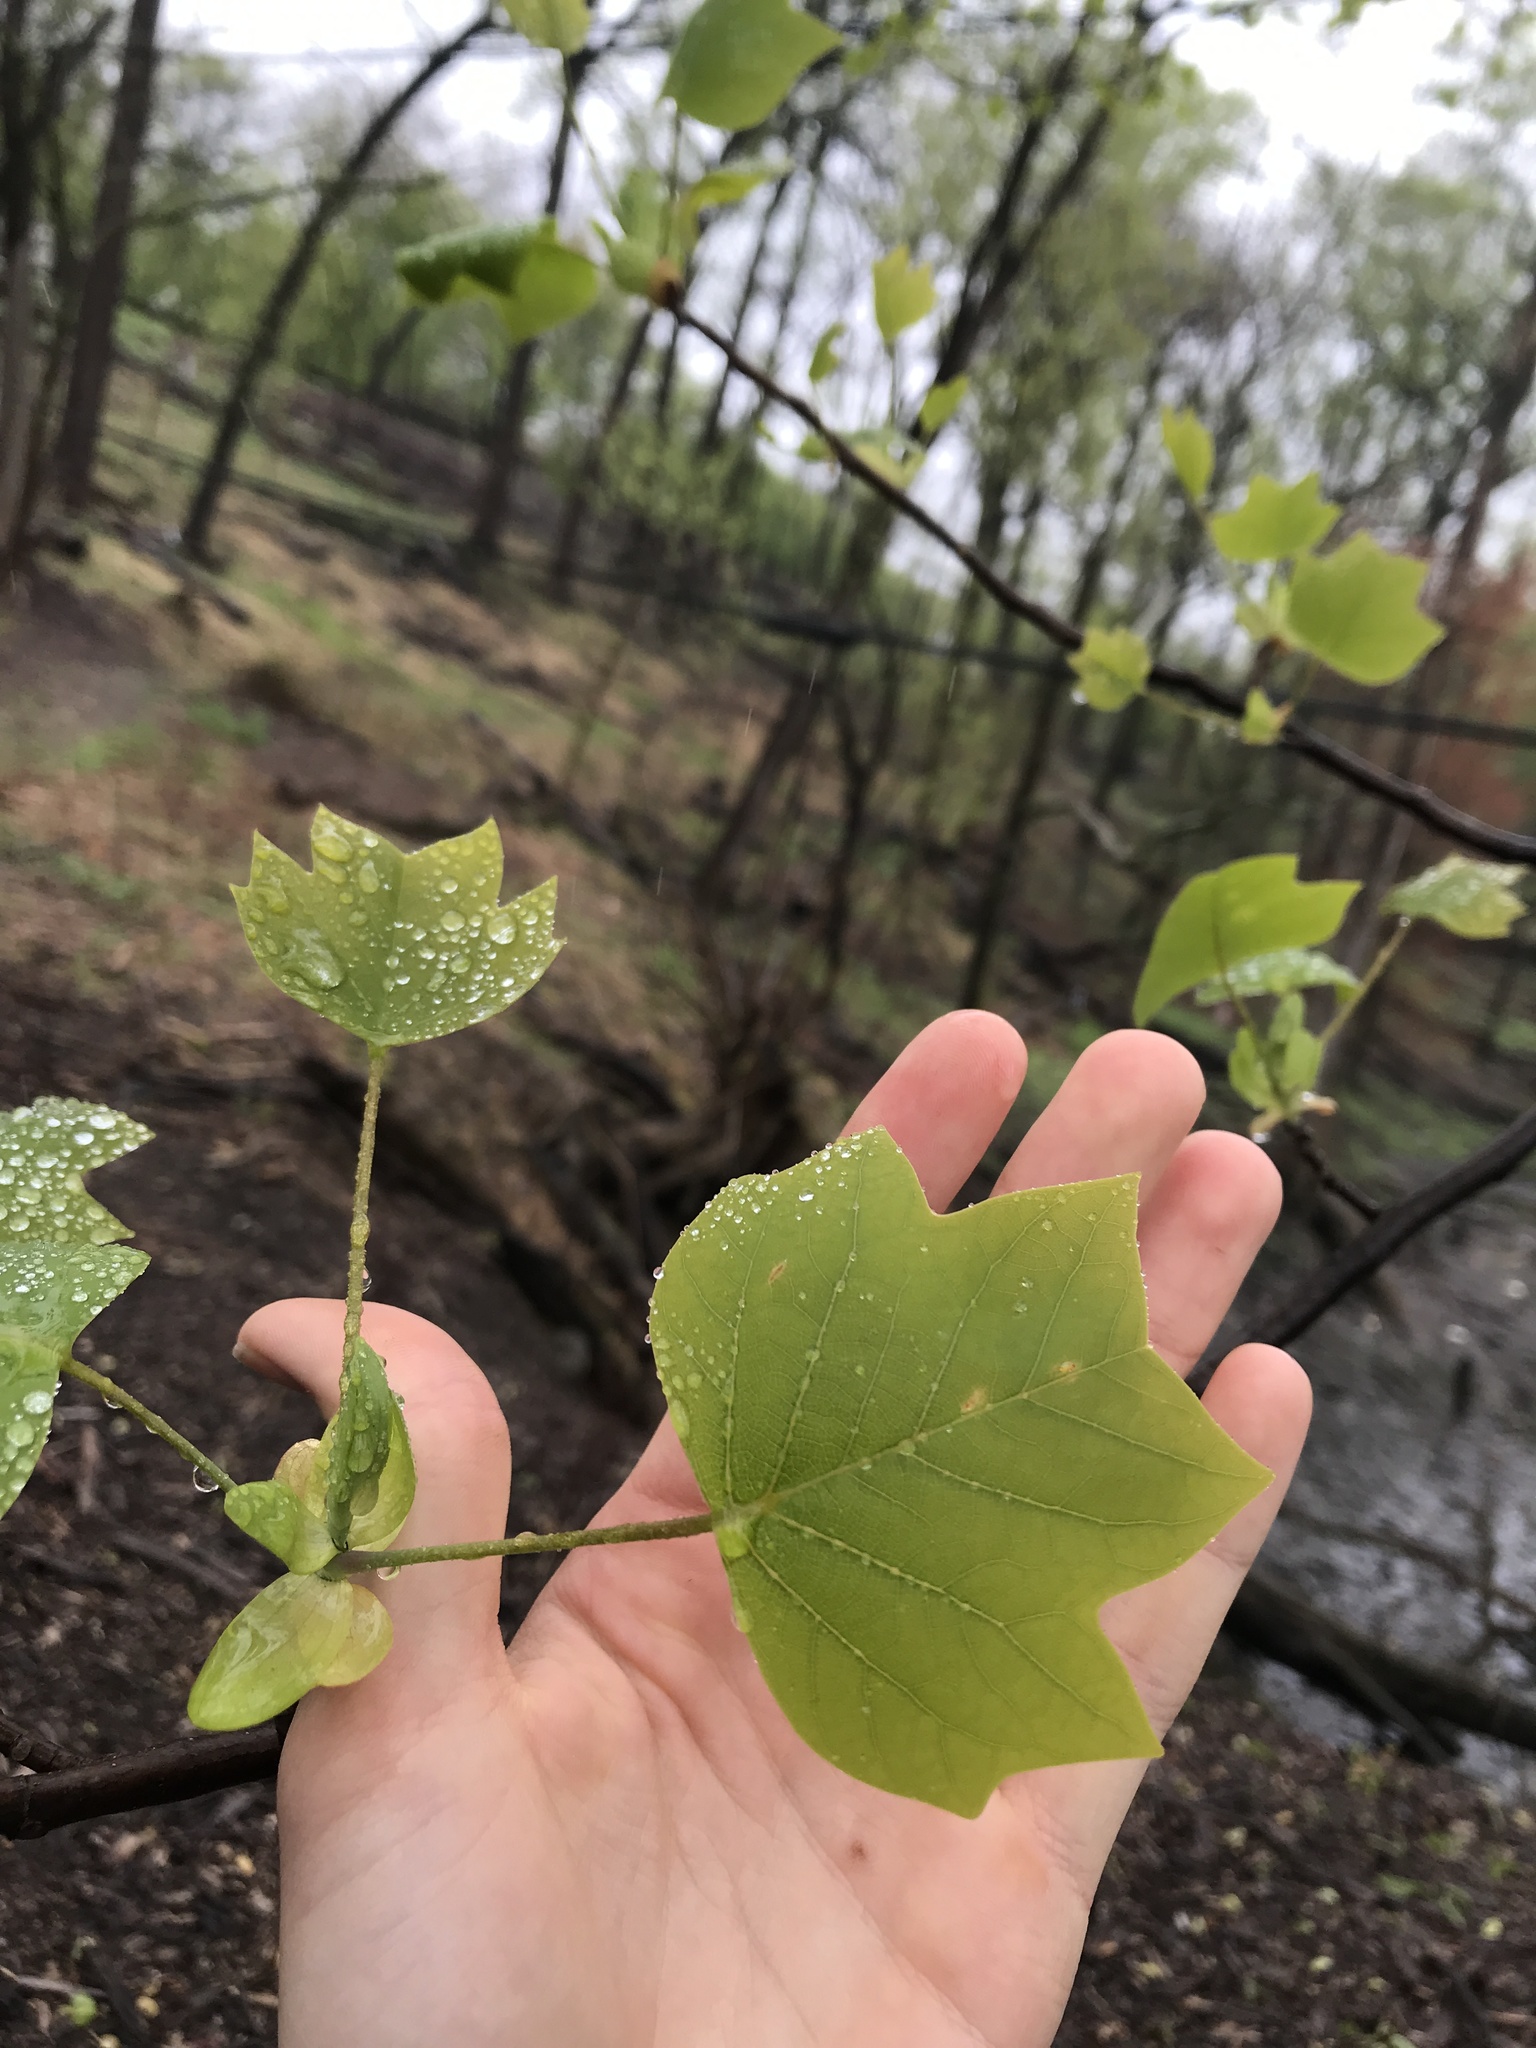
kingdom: Plantae
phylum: Tracheophyta
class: Magnoliopsida
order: Magnoliales
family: Magnoliaceae
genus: Liriodendron
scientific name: Liriodendron tulipifera
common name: Tulip tree
